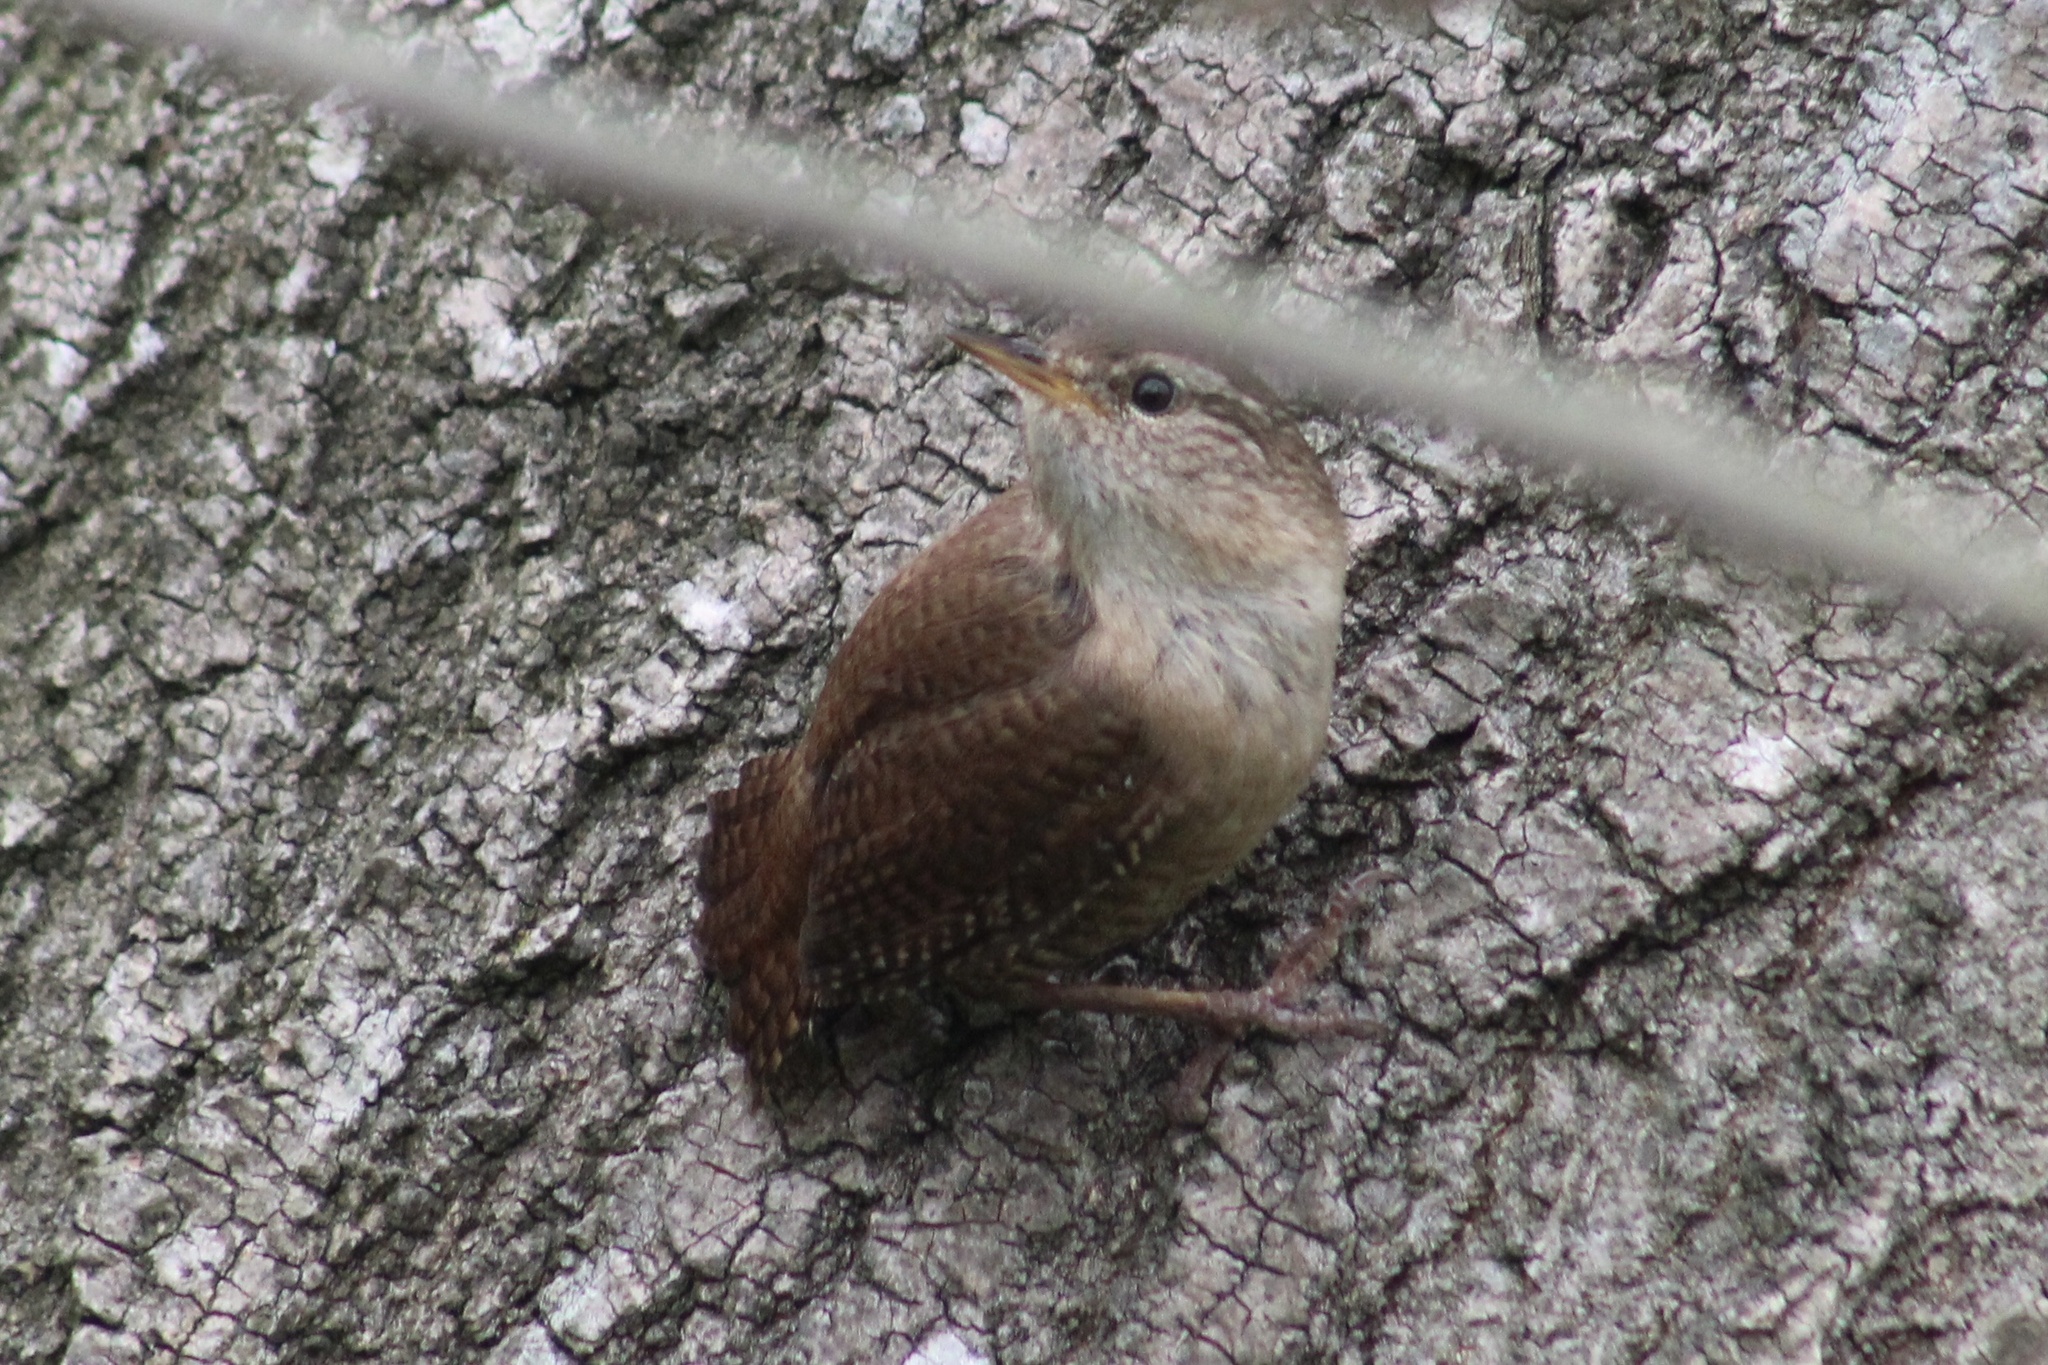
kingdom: Animalia
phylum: Chordata
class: Aves
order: Passeriformes
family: Troglodytidae
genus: Troglodytes
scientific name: Troglodytes troglodytes
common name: Eurasian wren
